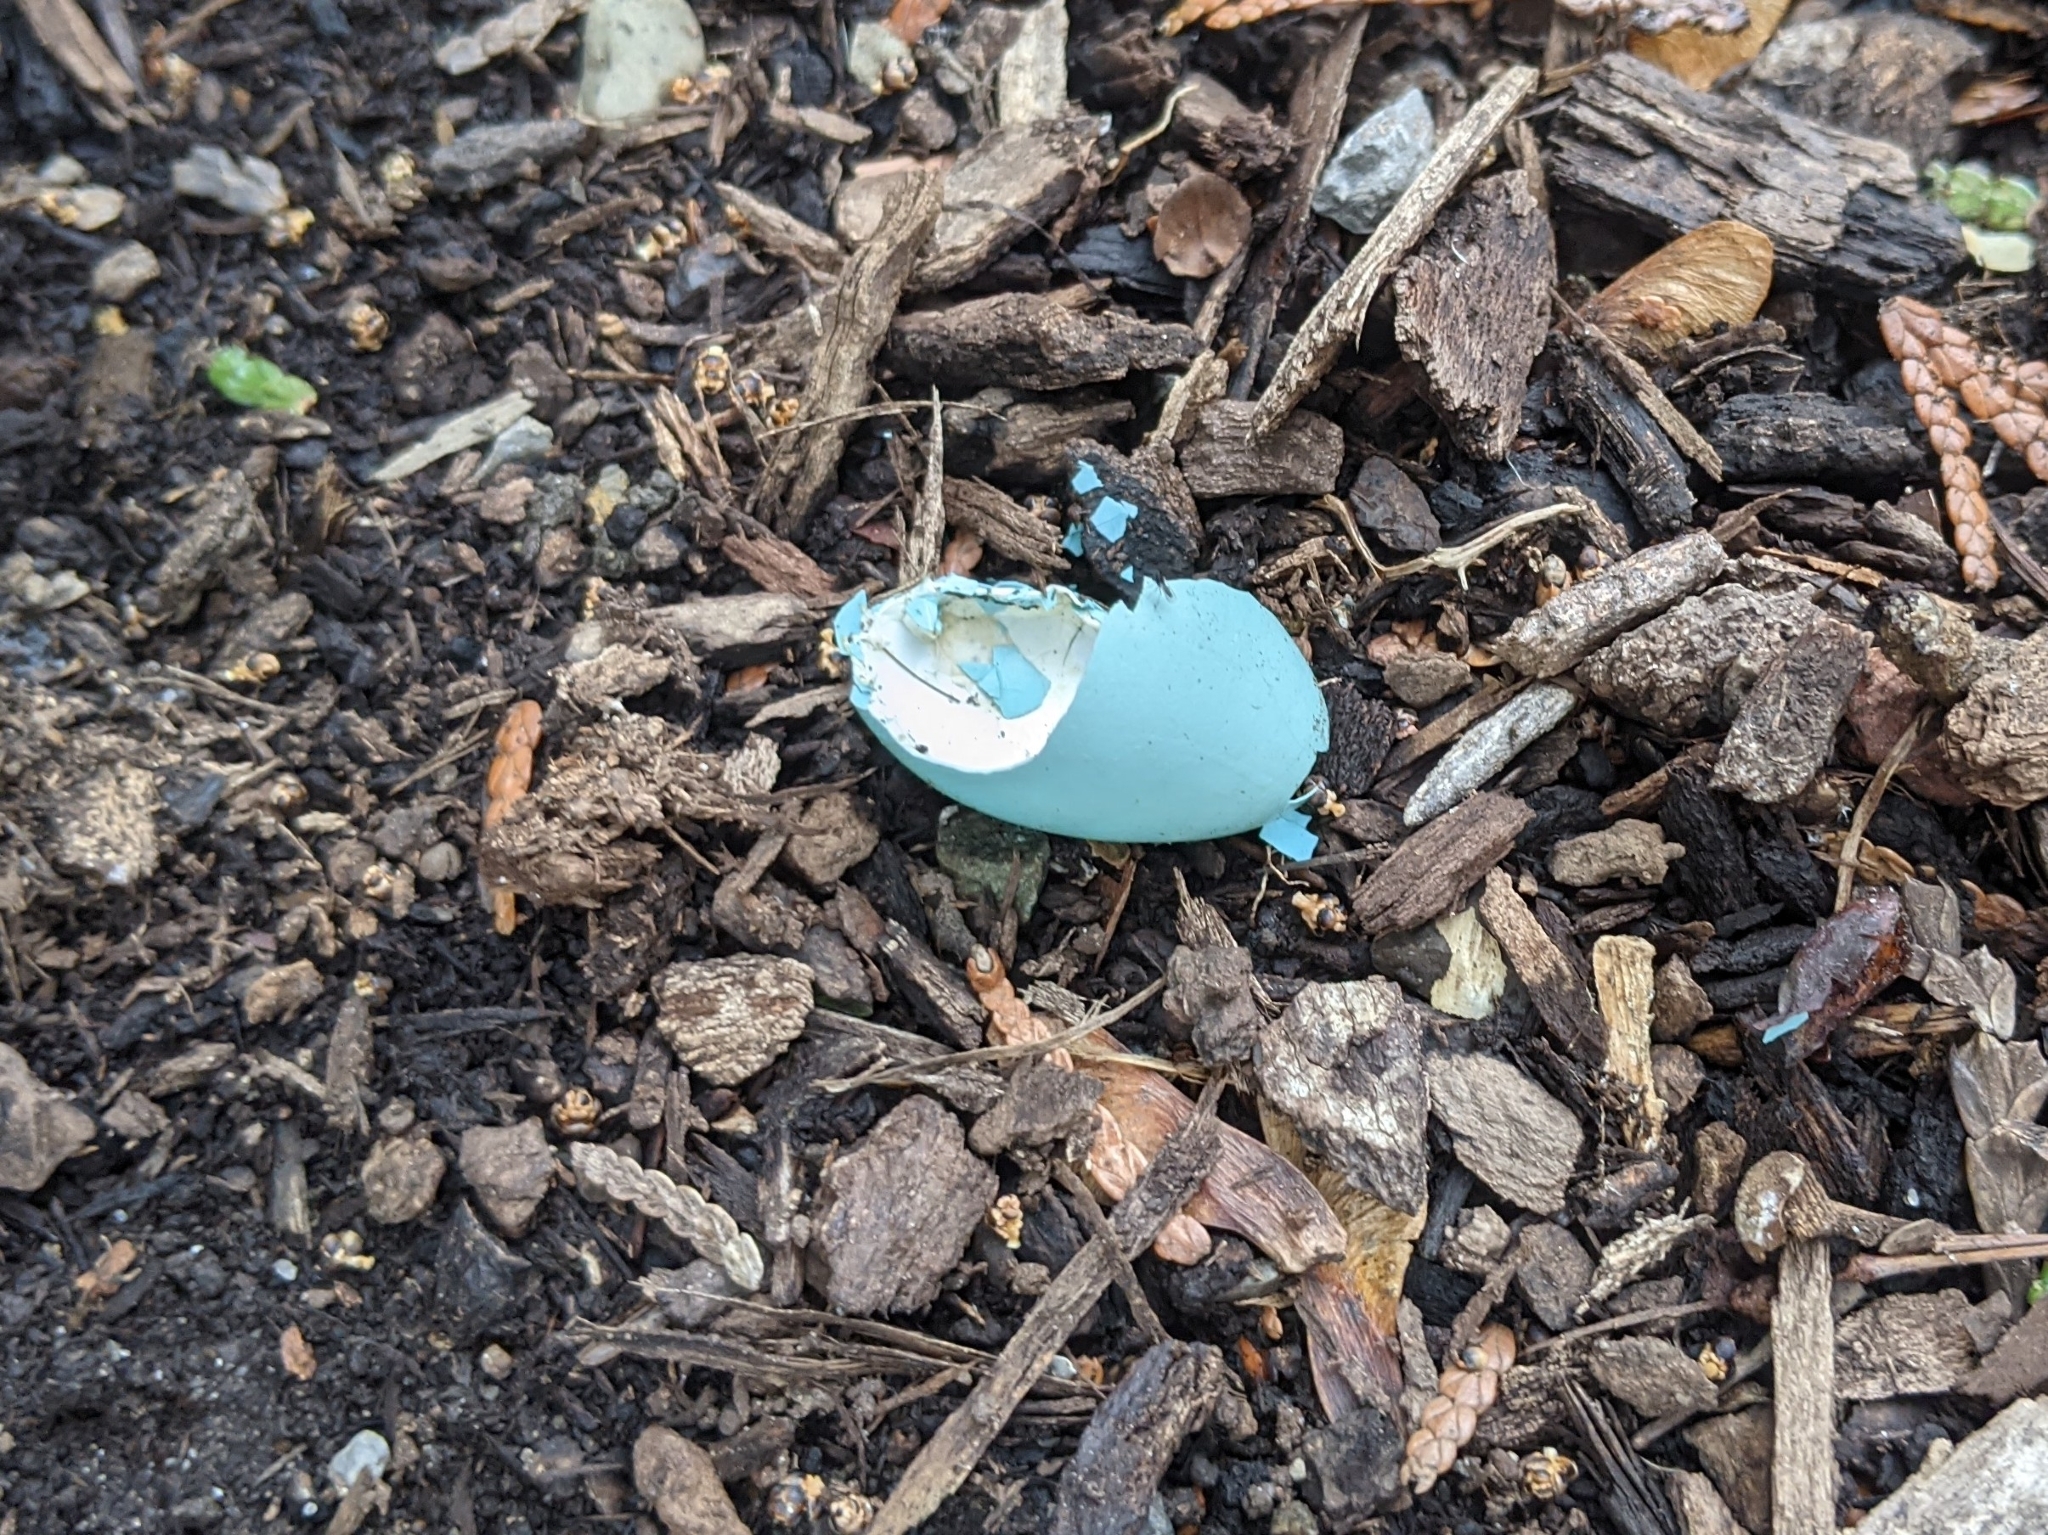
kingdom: Animalia
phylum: Chordata
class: Aves
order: Passeriformes
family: Turdidae
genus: Turdus
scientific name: Turdus migratorius
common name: American robin
